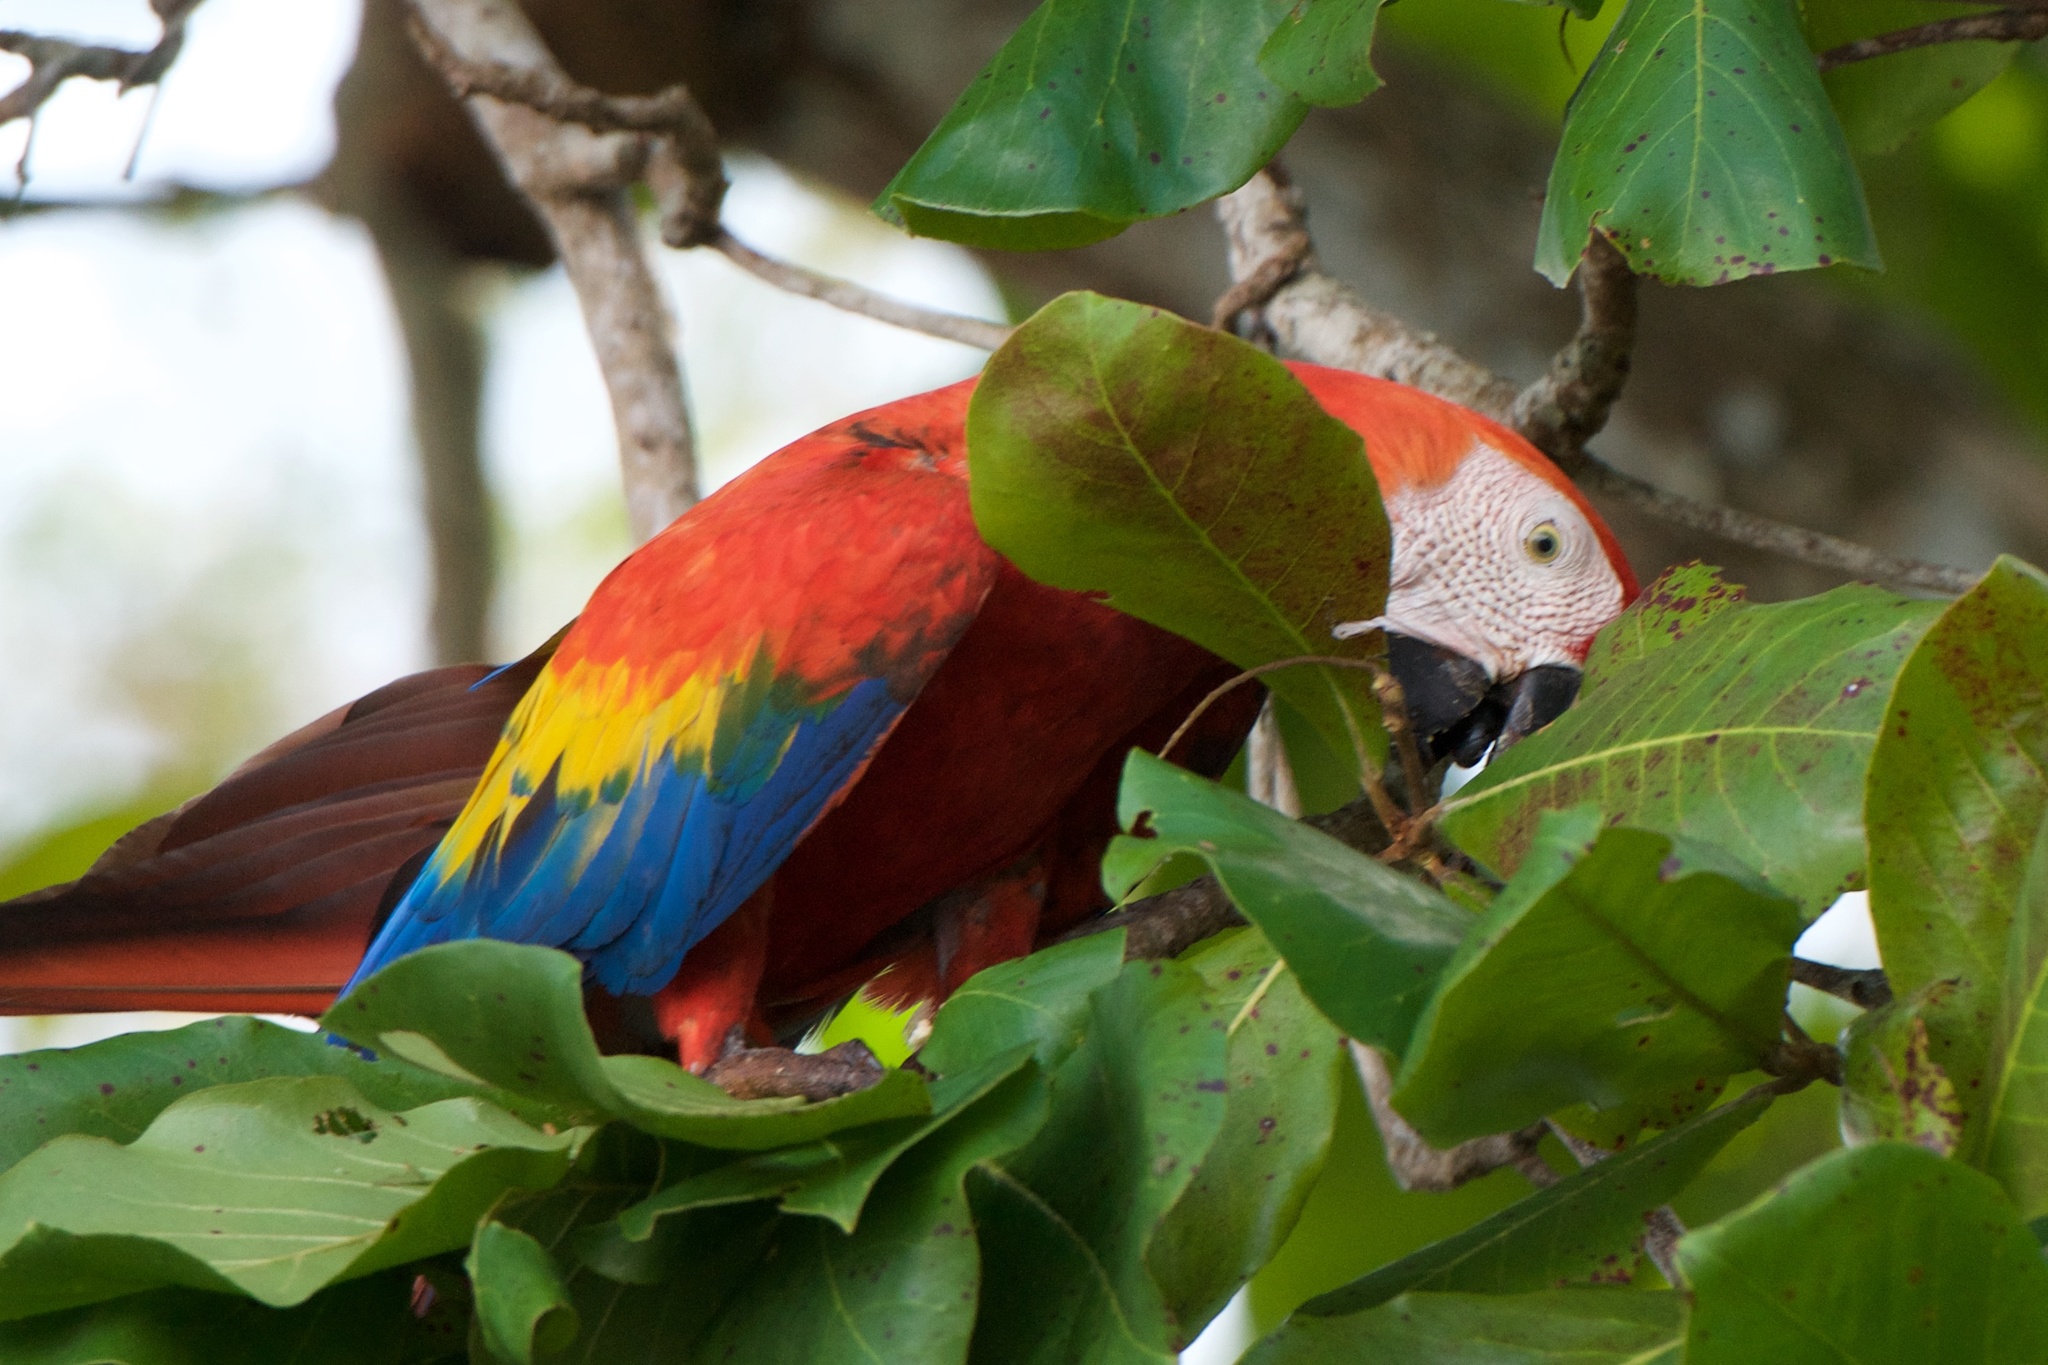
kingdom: Animalia
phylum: Chordata
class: Aves
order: Psittaciformes
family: Psittacidae
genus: Ara
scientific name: Ara macao
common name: Scarlet macaw
